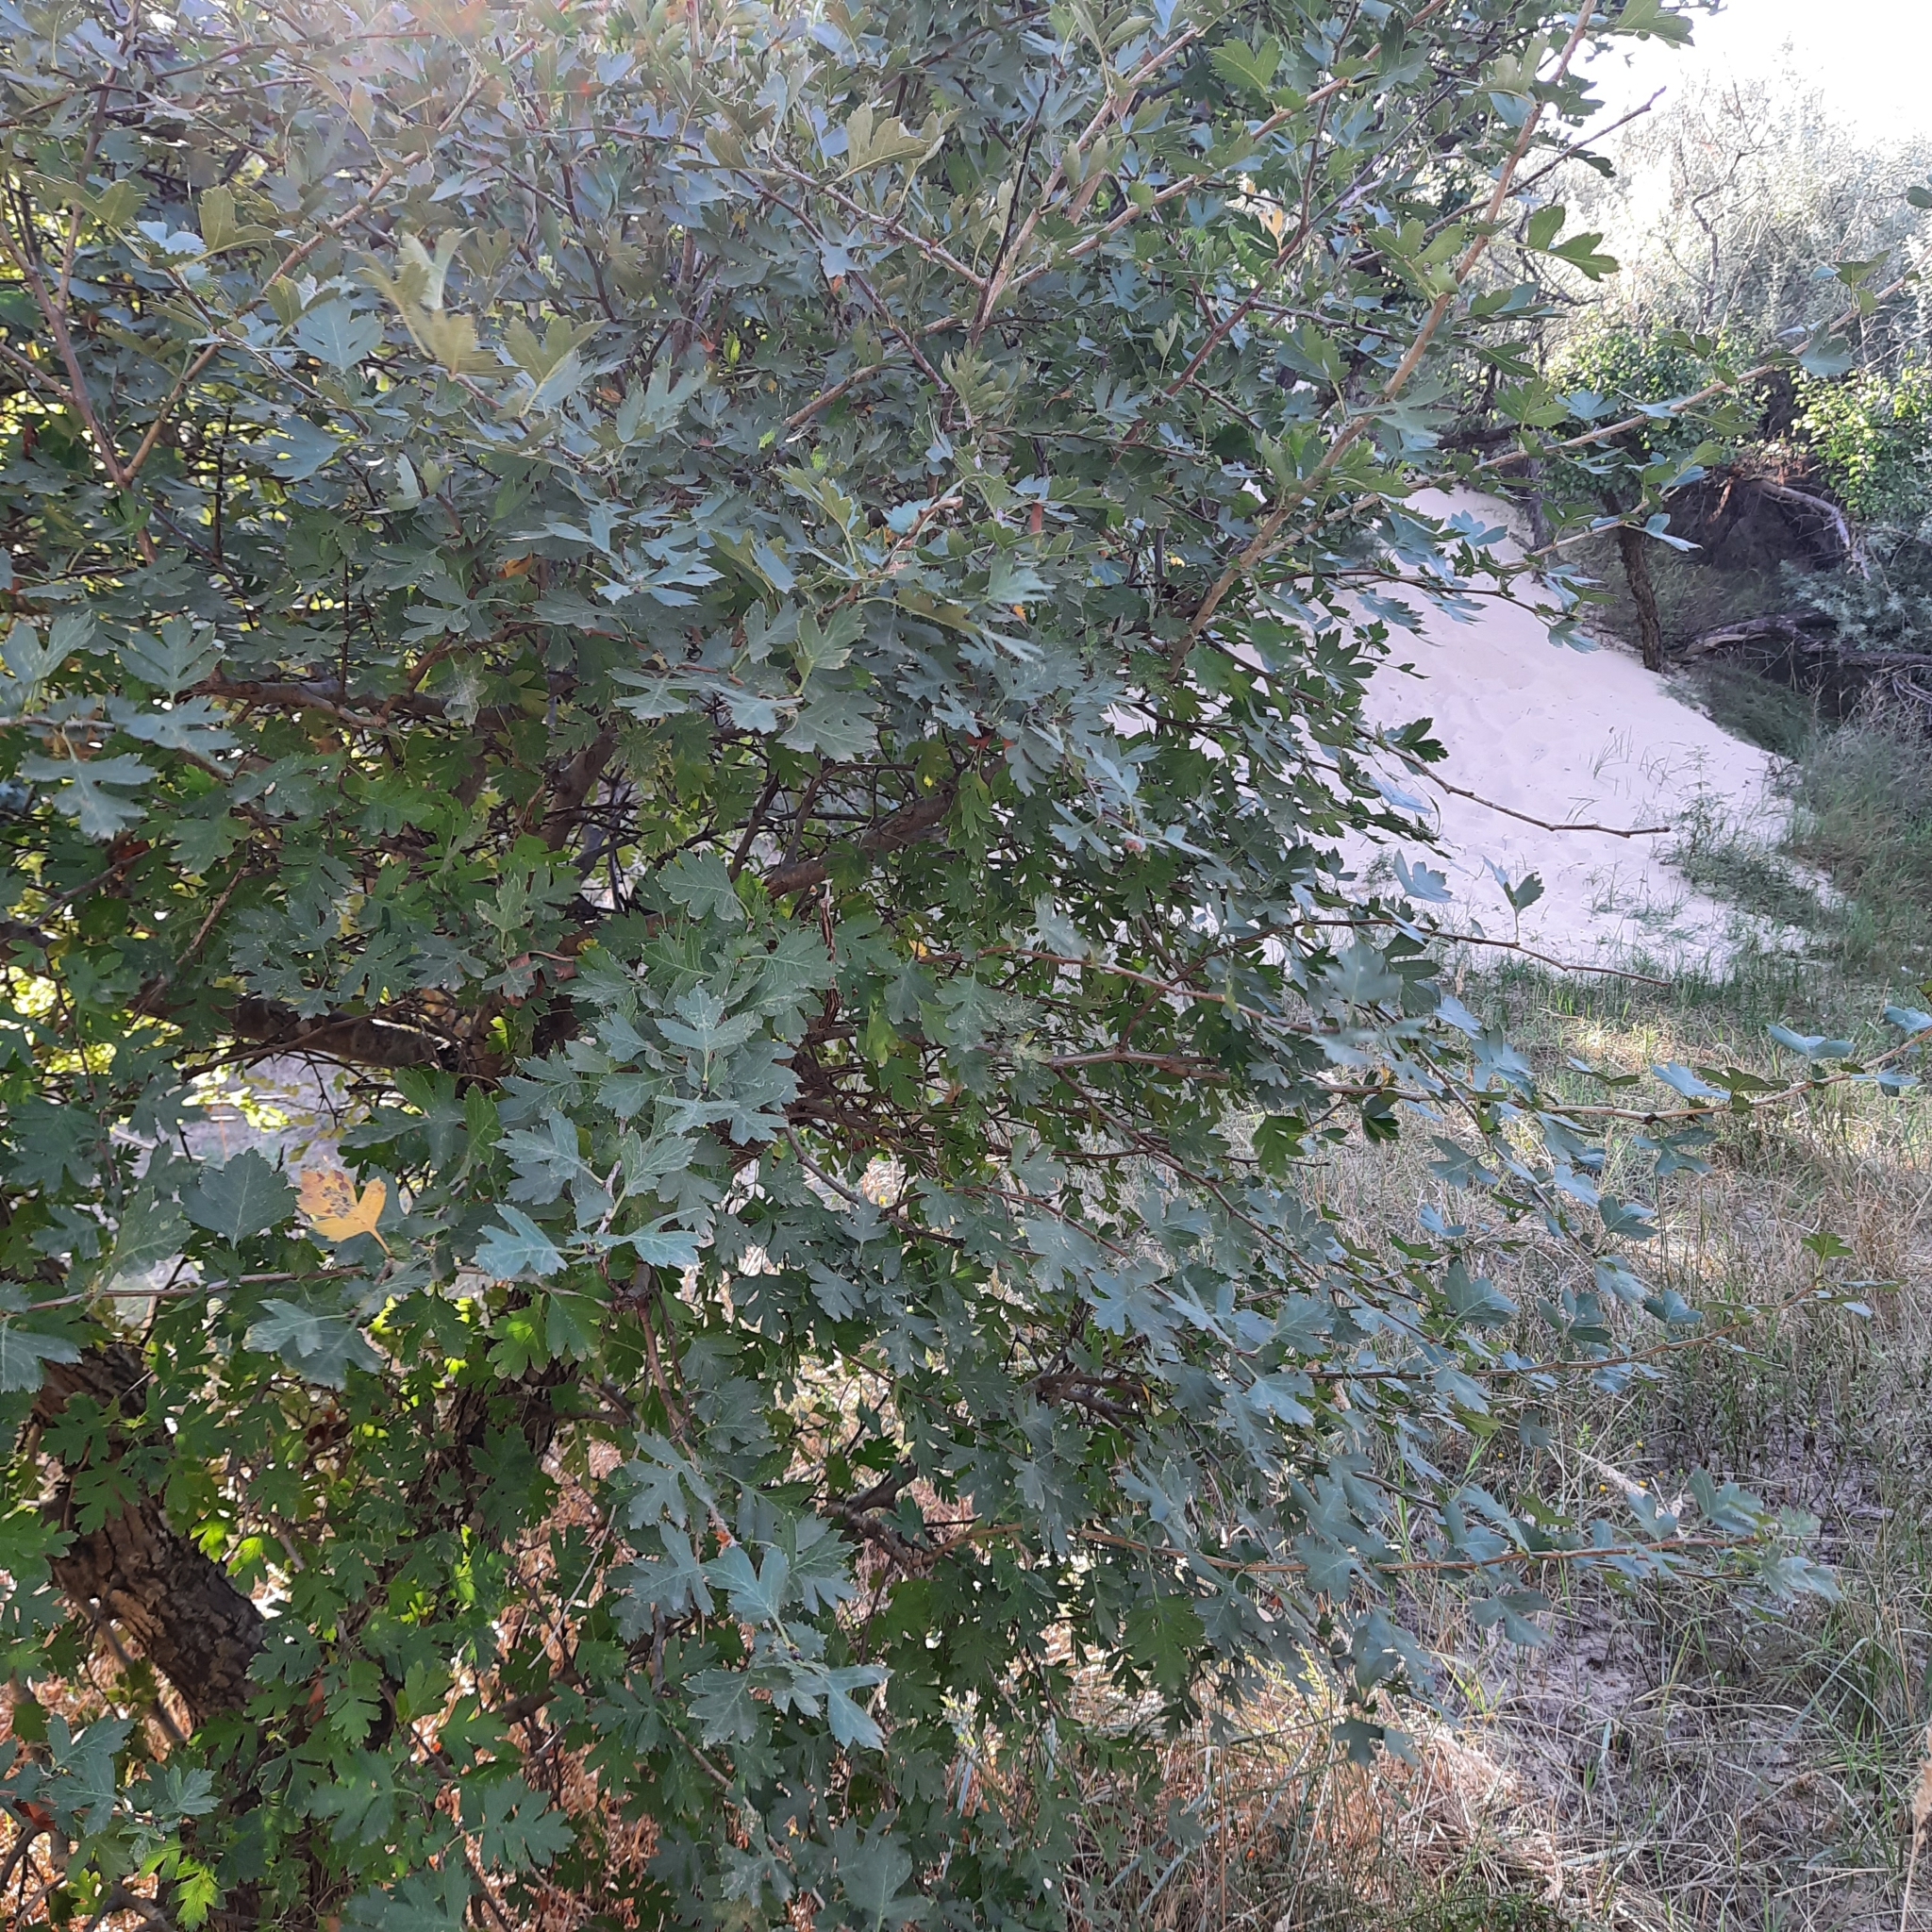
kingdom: Plantae
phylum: Tracheophyta
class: Magnoliopsida
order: Rosales
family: Rosaceae
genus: Crataegus
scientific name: Crataegus monogyna
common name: Hawthorn
